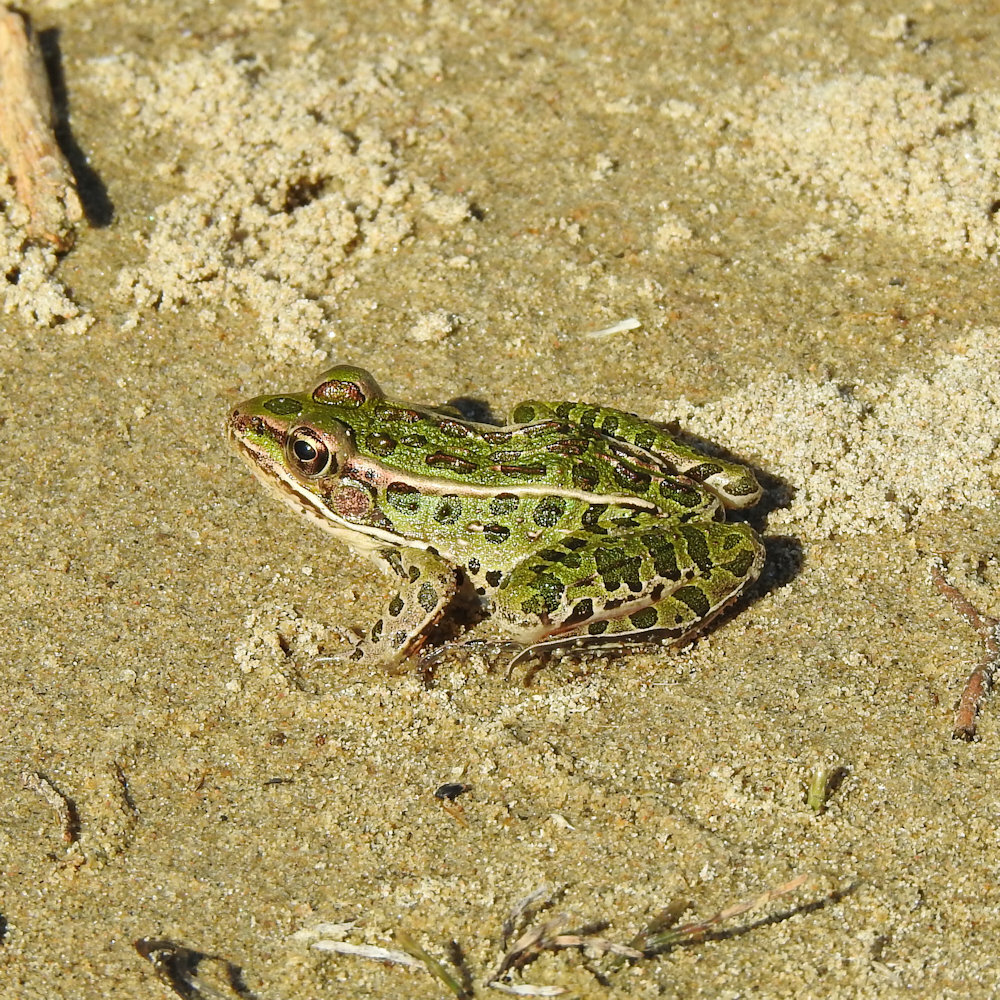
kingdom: Animalia
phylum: Chordata
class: Amphibia
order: Anura
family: Ranidae
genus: Lithobates
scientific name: Lithobates pipiens
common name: Northern leopard frog
